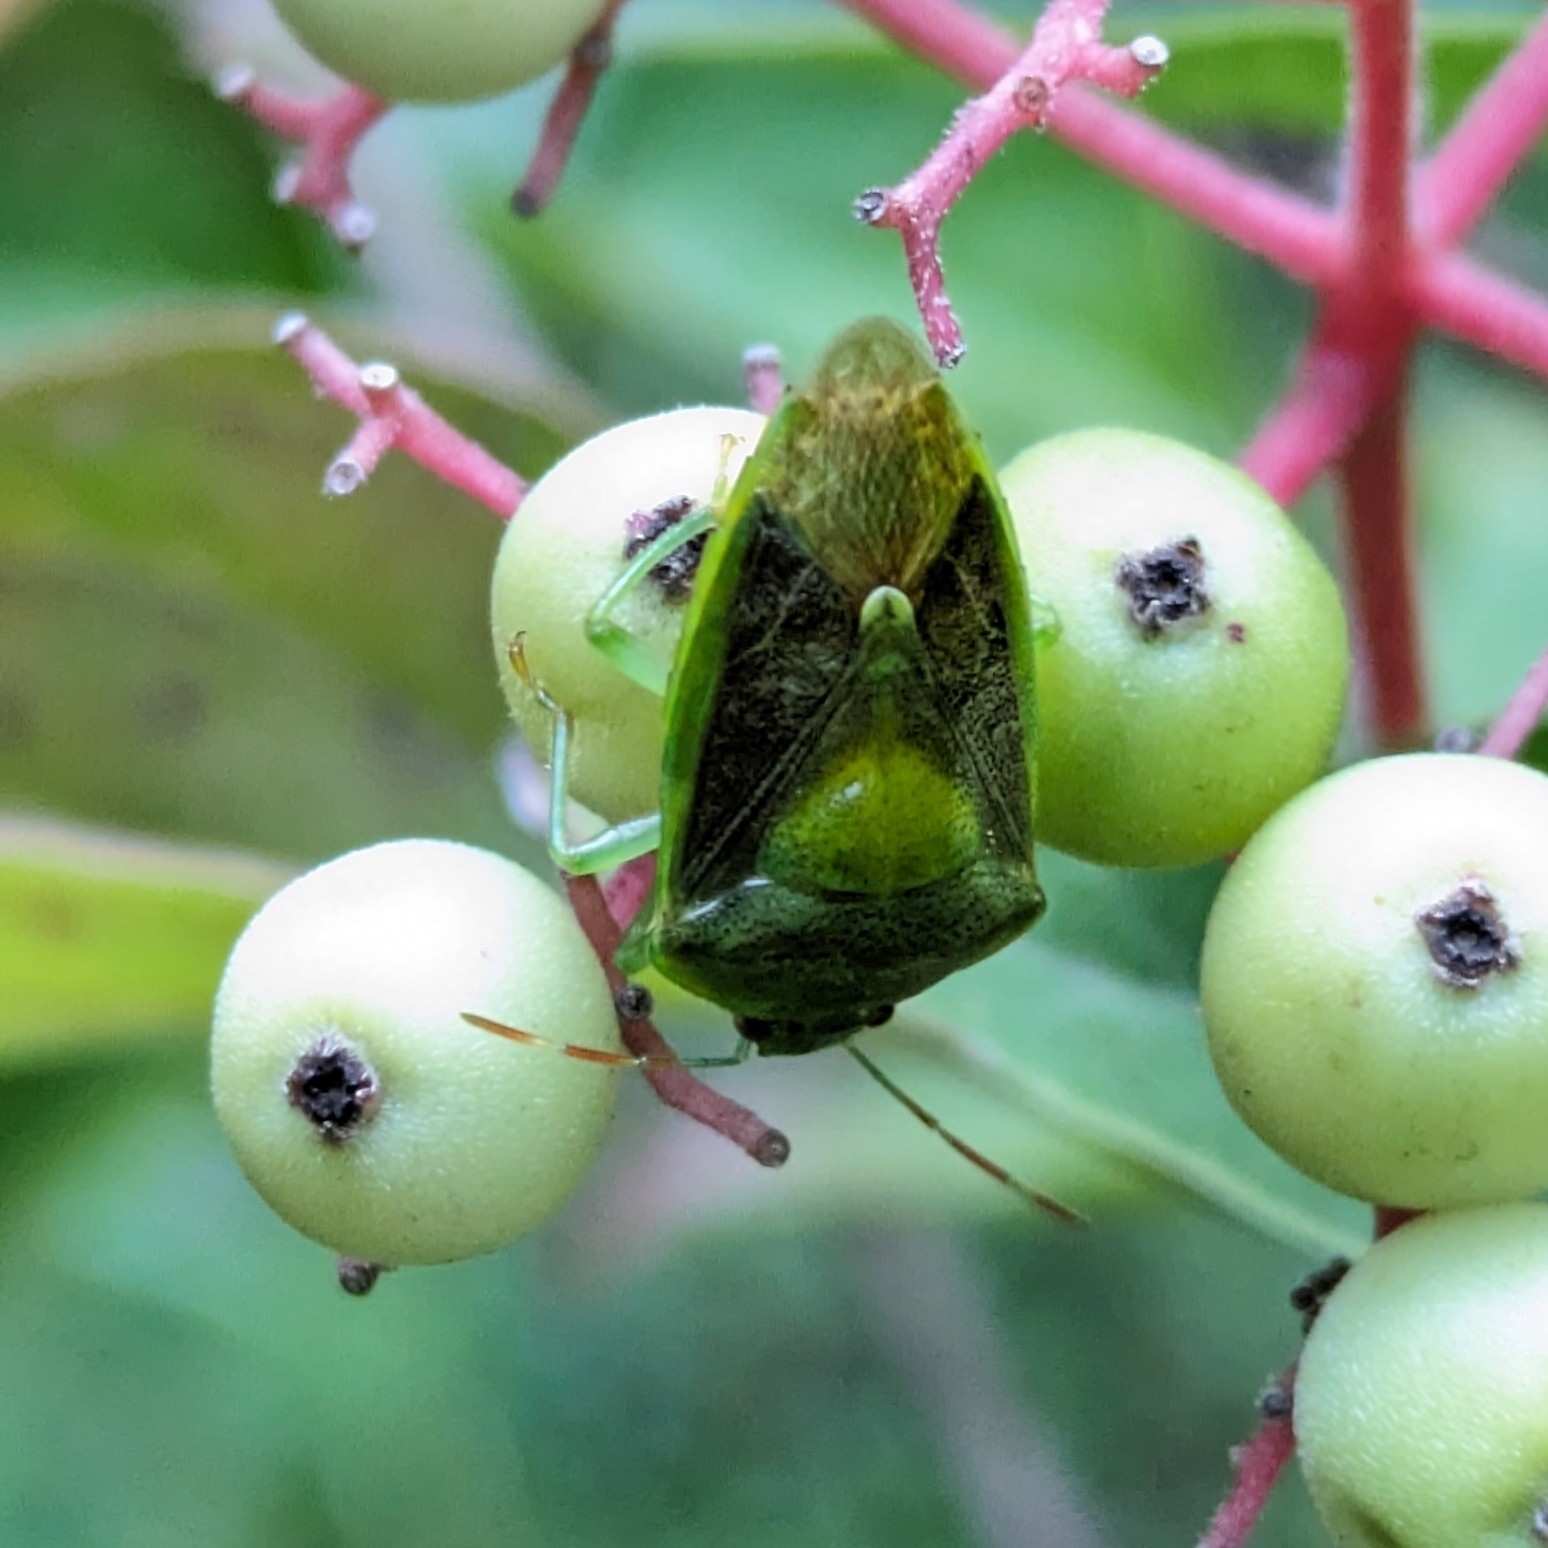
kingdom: Animalia
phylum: Arthropoda
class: Insecta
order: Hemiptera
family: Pentatomidae
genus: Banasa
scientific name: Banasa dimidiata
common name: Green burgundy stink bug
